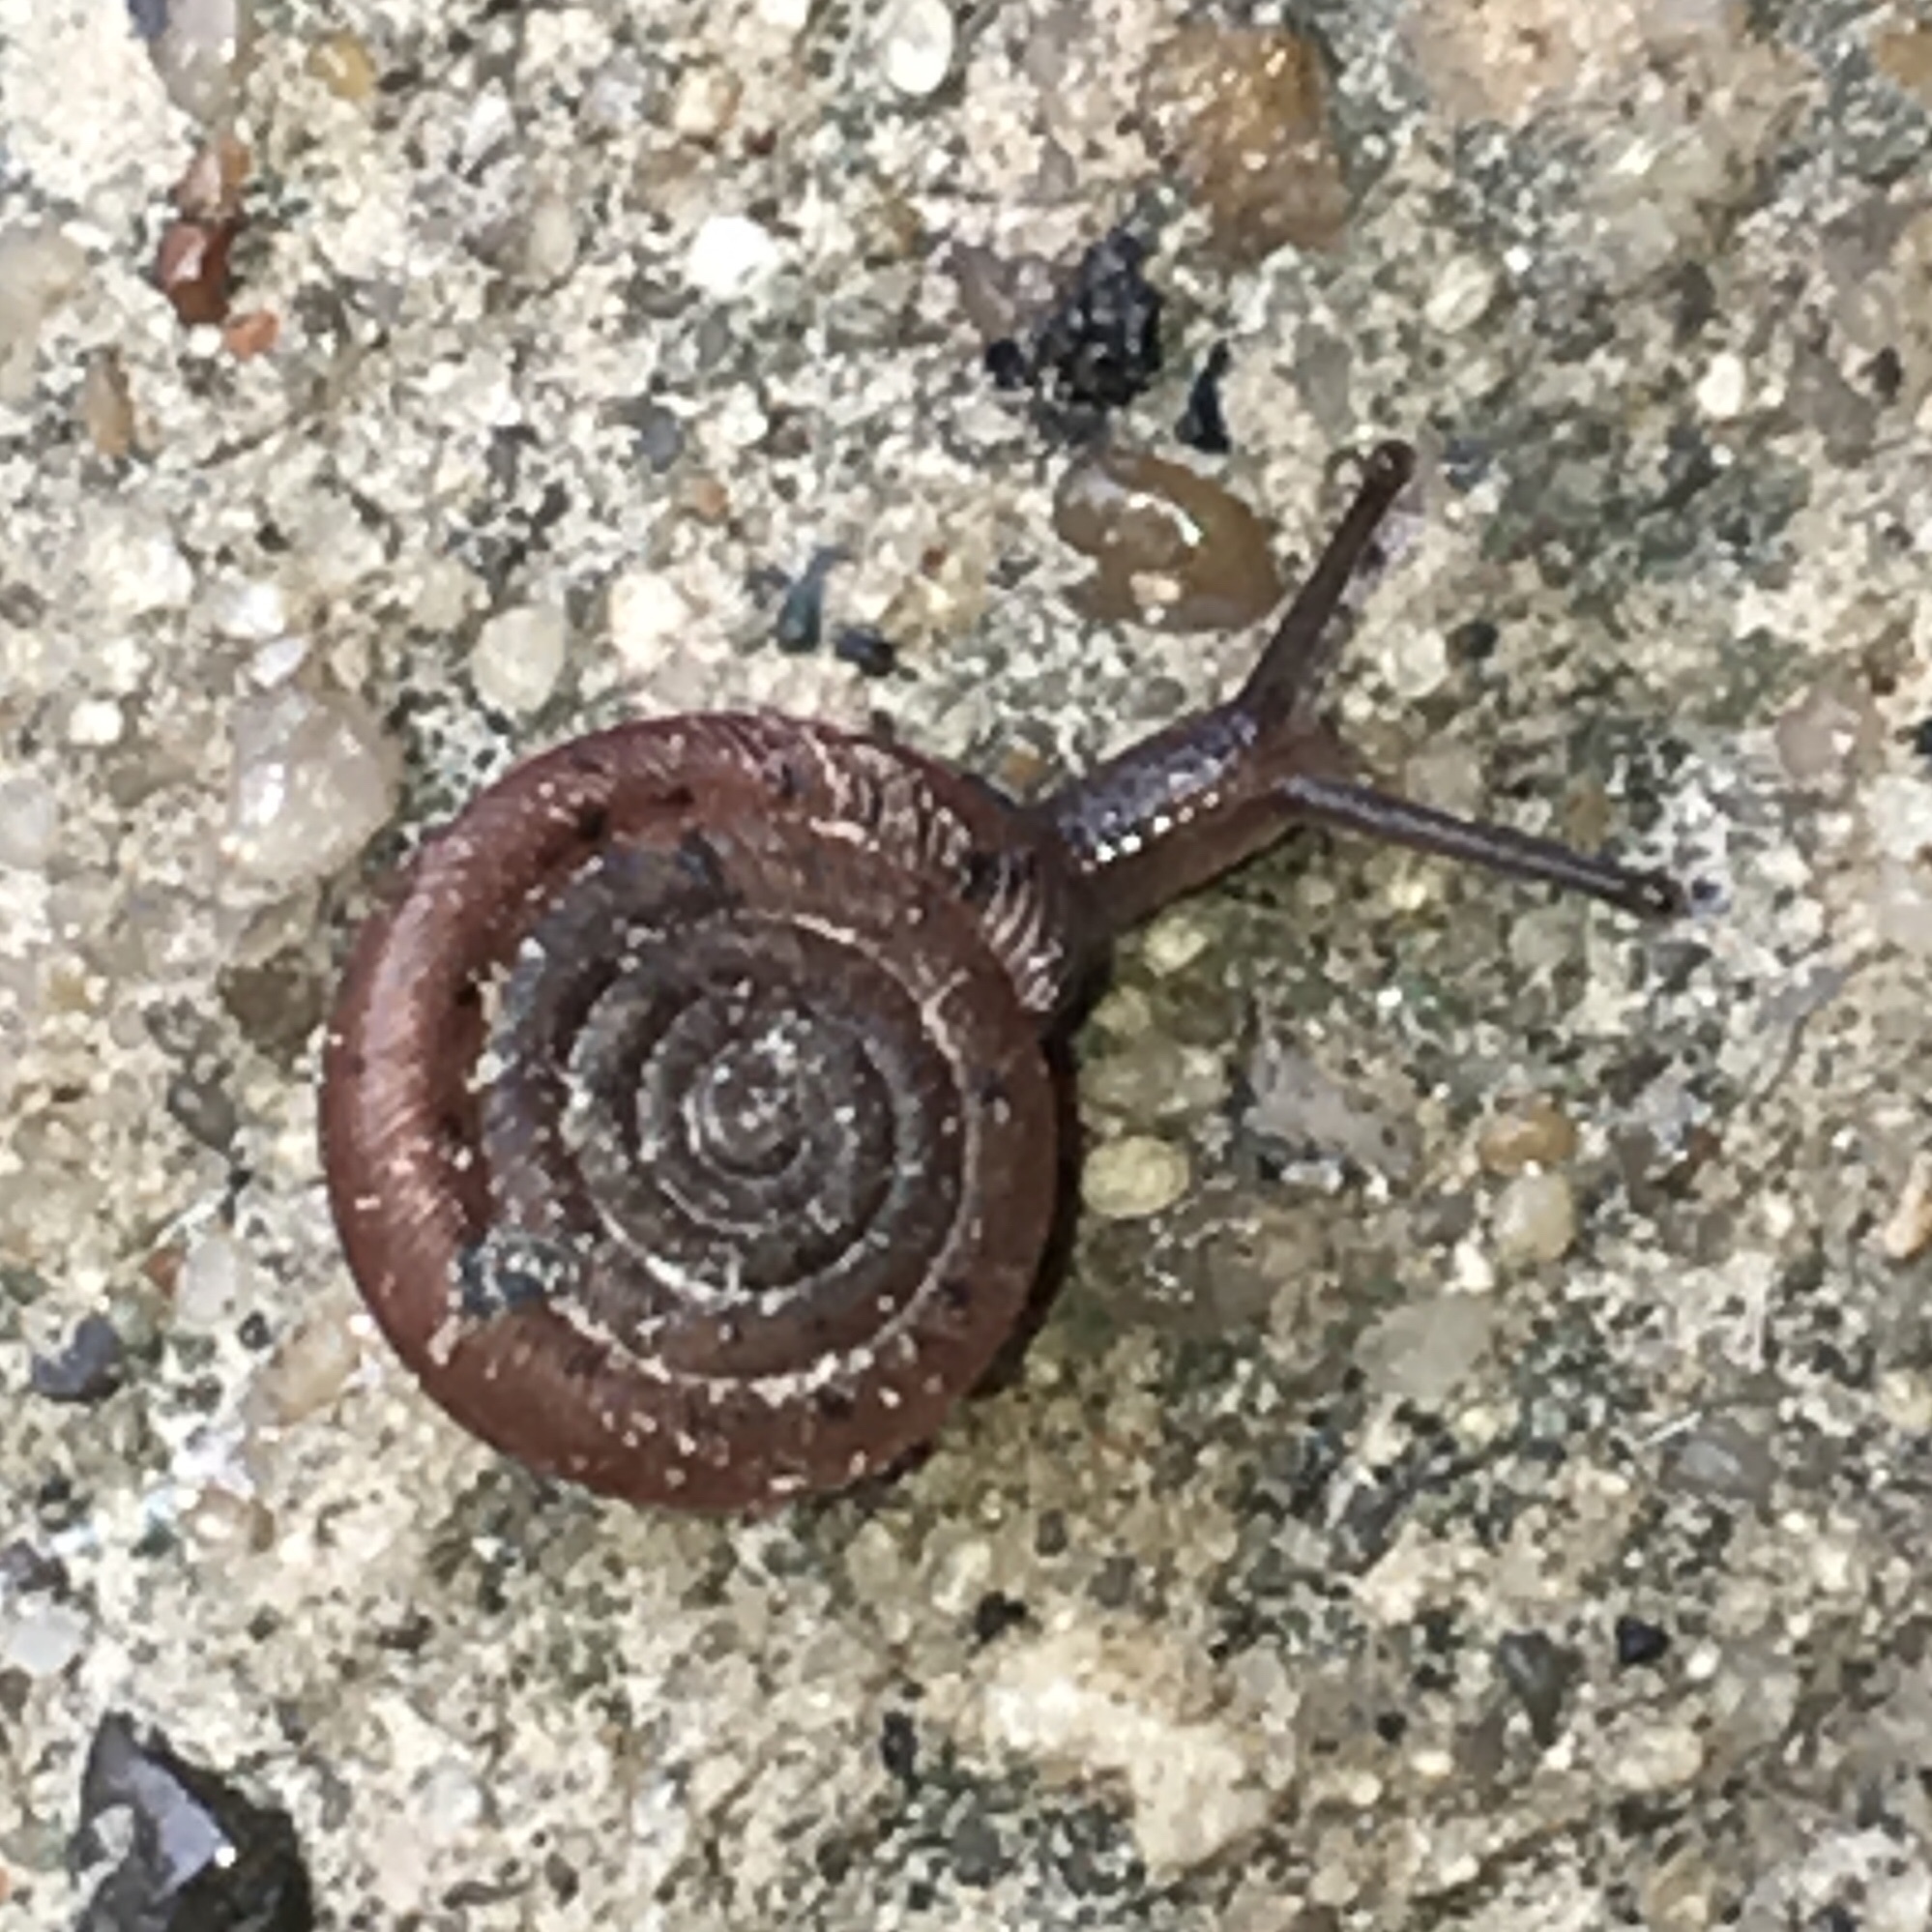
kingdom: Animalia
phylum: Mollusca
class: Gastropoda
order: Stylommatophora
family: Polygyridae
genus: Polygyra
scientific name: Polygyra cereolus
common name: Southern flatcone snail
